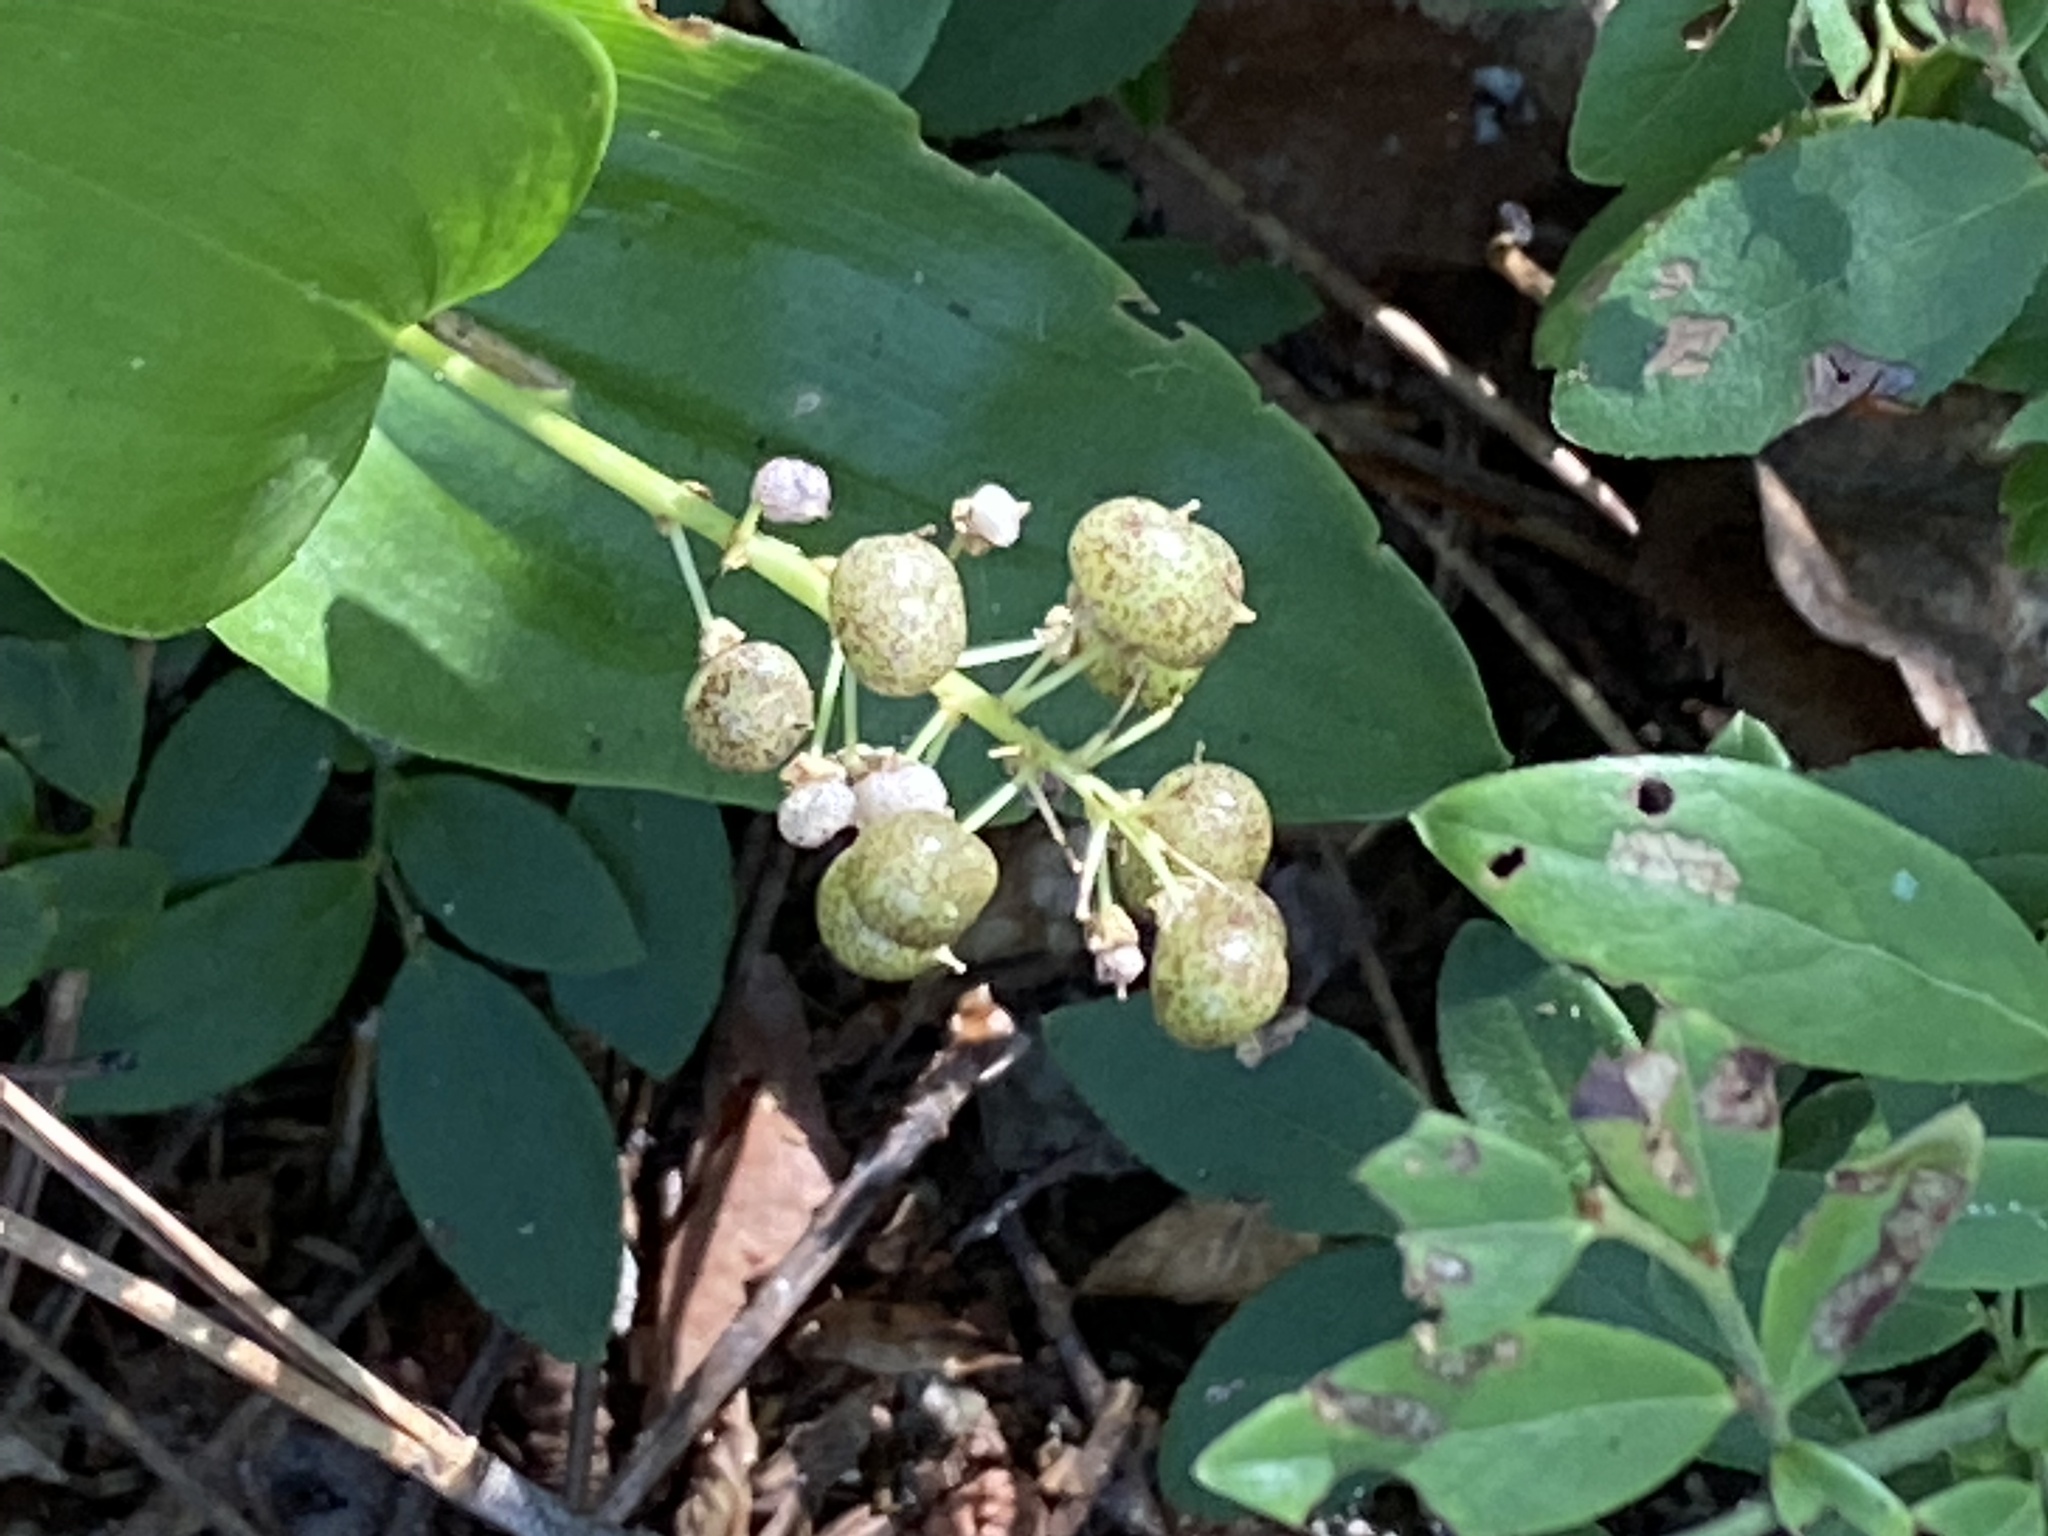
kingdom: Plantae
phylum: Tracheophyta
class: Liliopsida
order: Asparagales
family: Asparagaceae
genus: Maianthemum
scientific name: Maianthemum canadense
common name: False lily-of-the-valley
